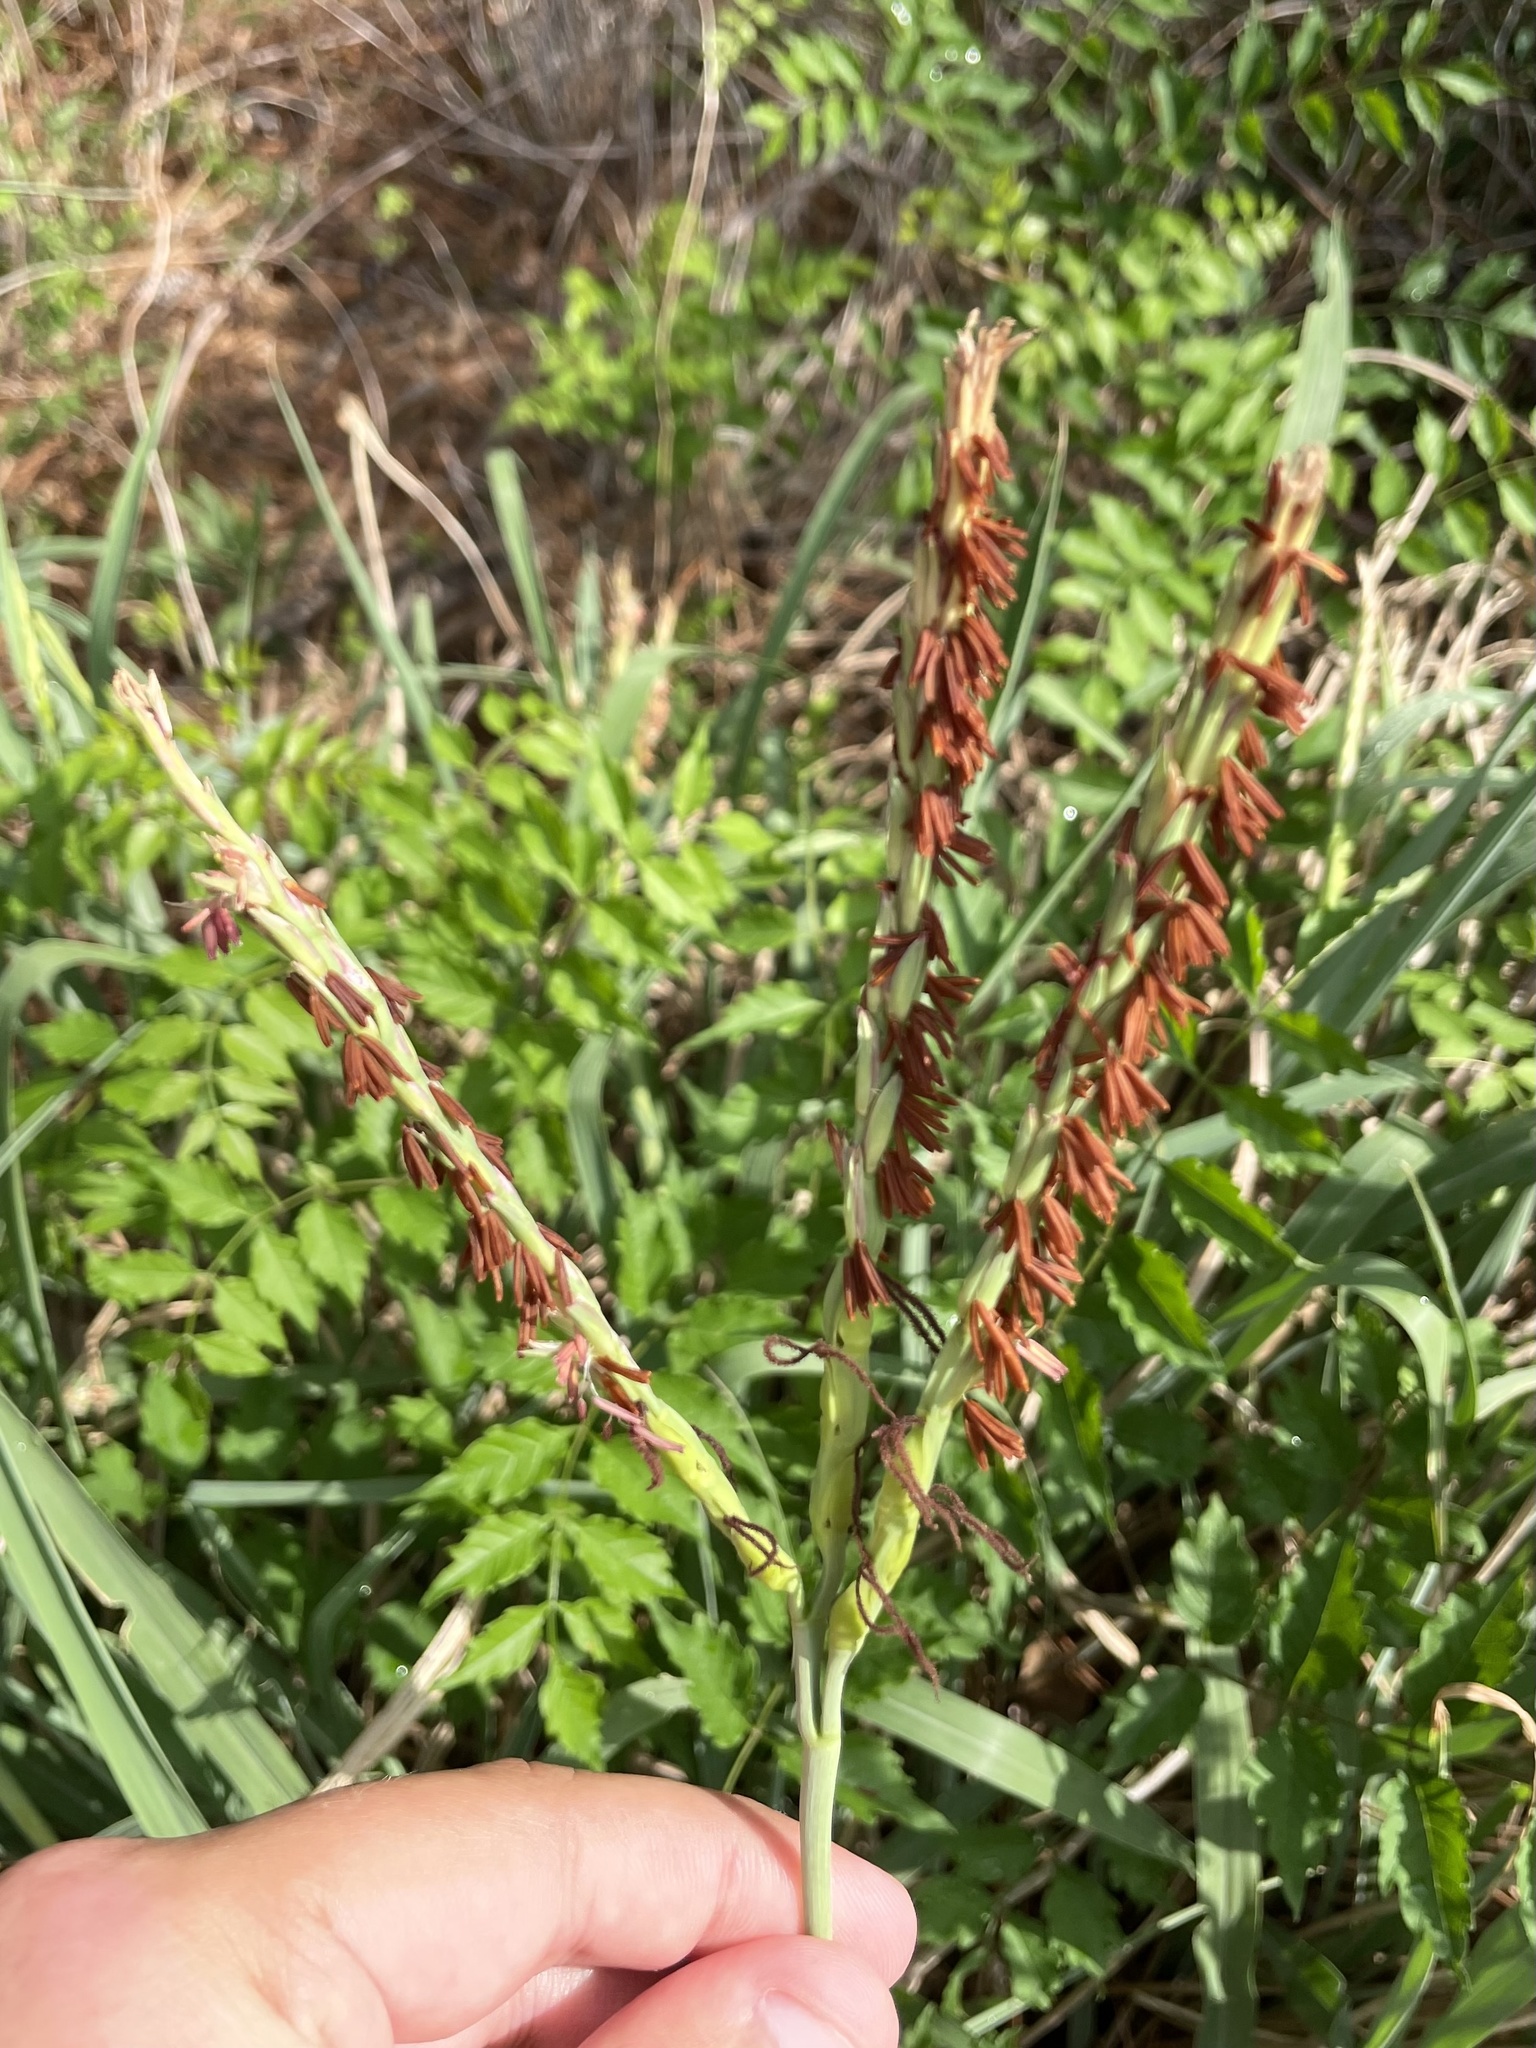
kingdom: Plantae
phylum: Tracheophyta
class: Liliopsida
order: Poales
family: Poaceae
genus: Tripsacum
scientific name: Tripsacum dactyloides
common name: Buffalo-grass
